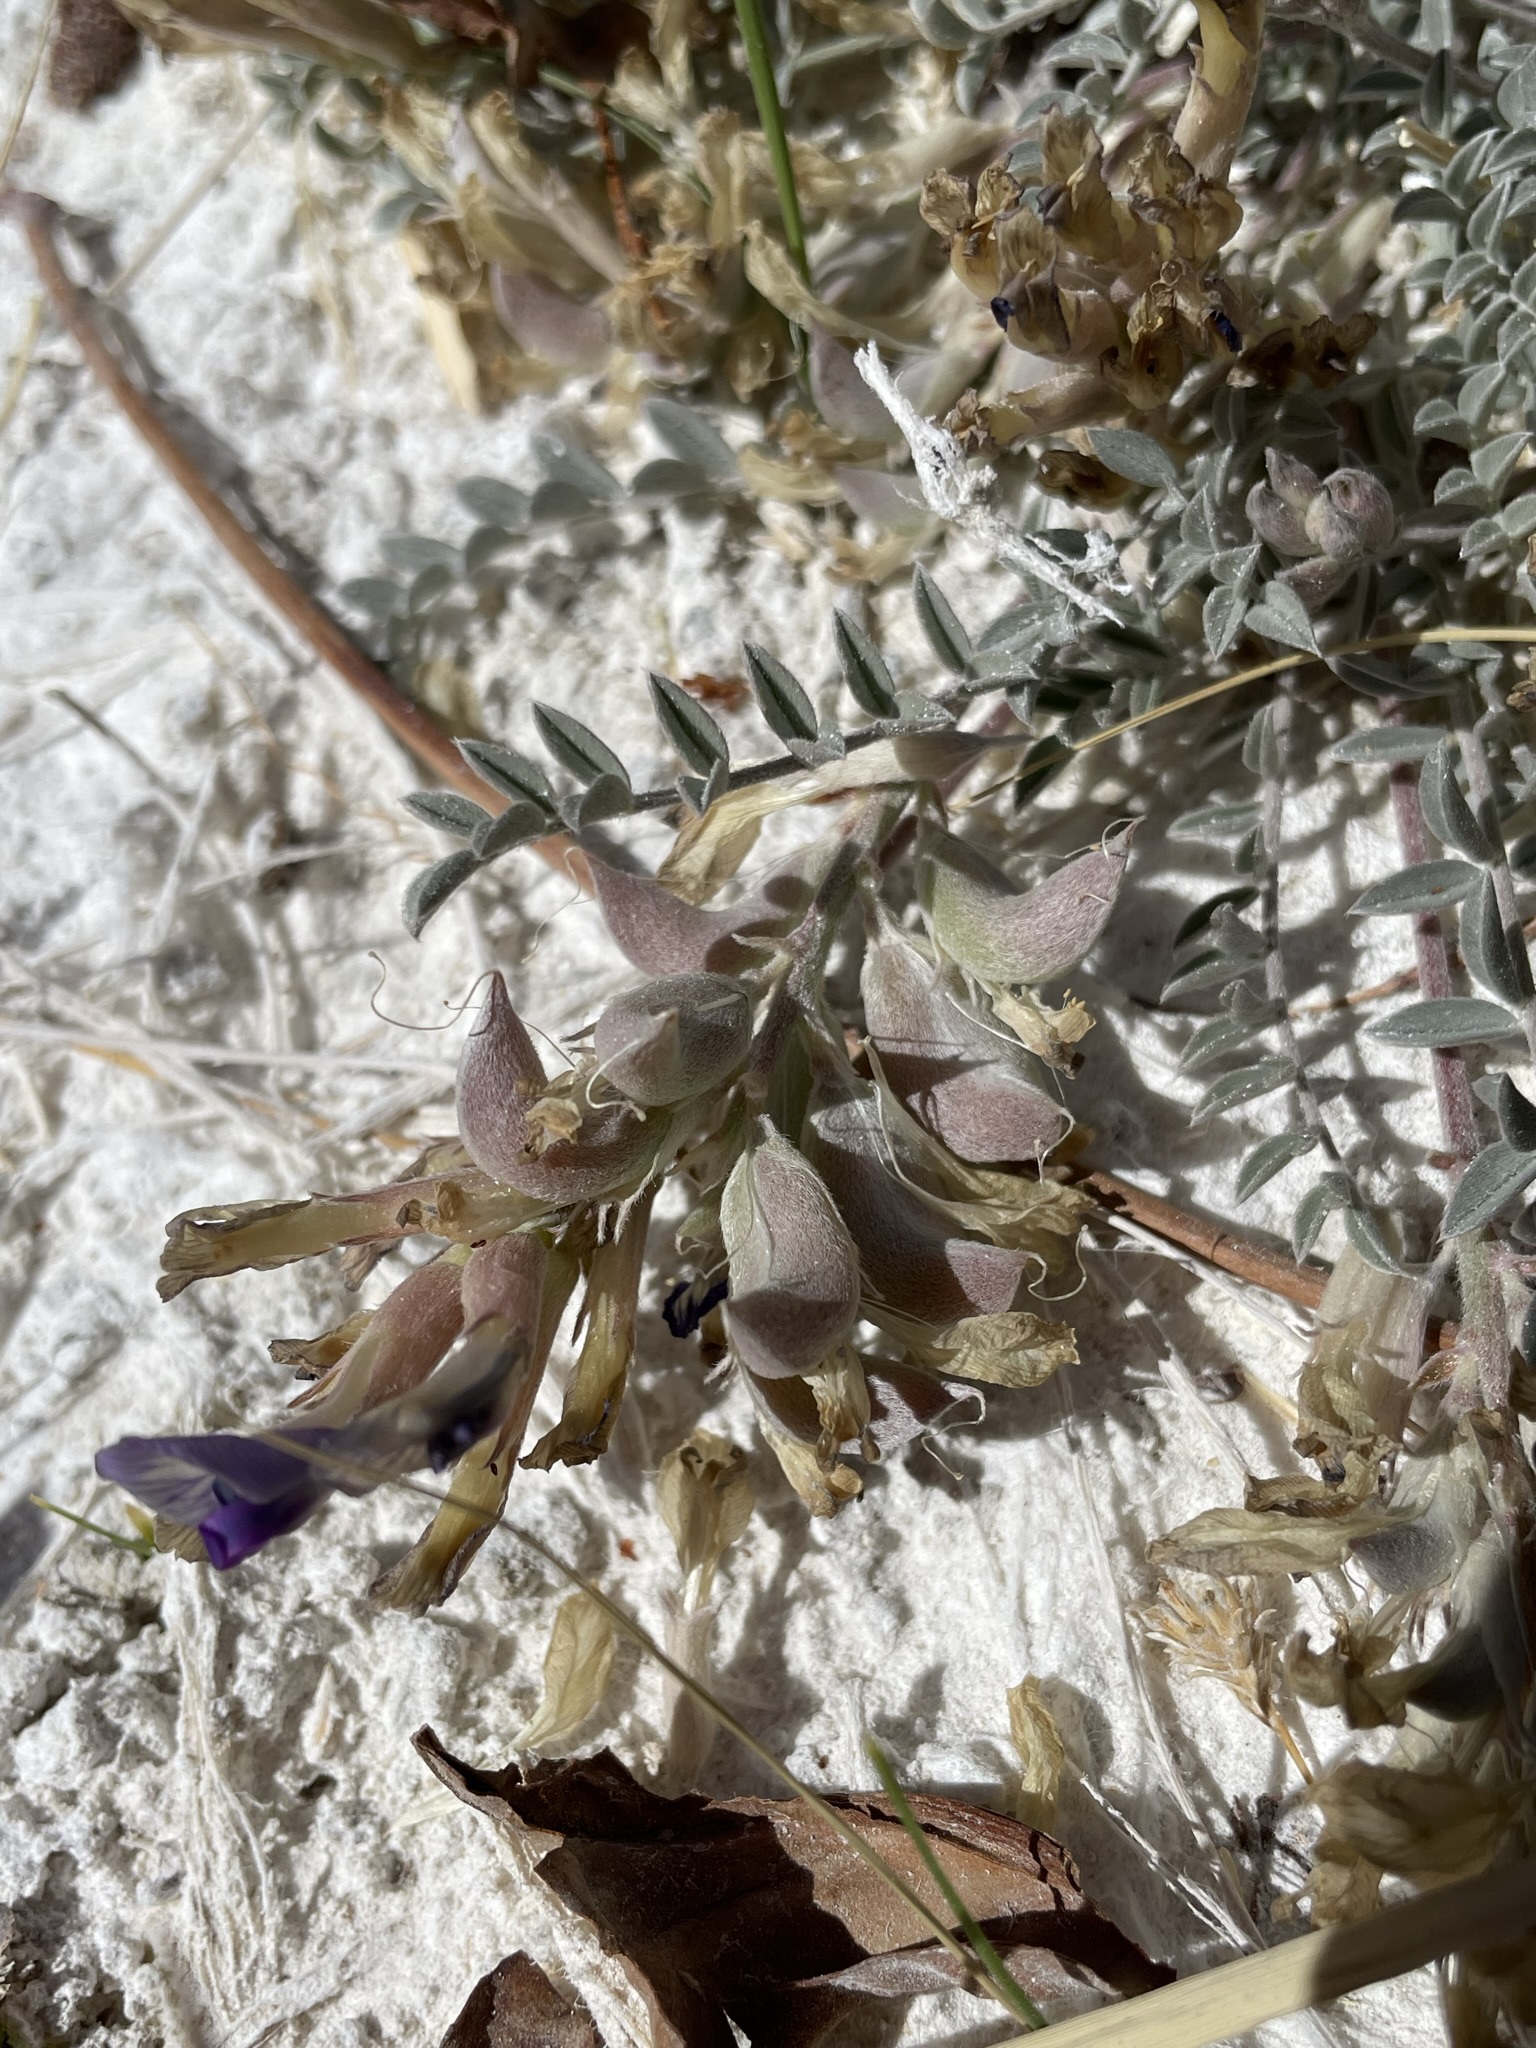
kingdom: Plantae
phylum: Tracheophyta
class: Magnoliopsida
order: Fabales
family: Fabaceae
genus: Astragalus
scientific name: Astragalus argophyllus
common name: Silverleaf milk-vetch
